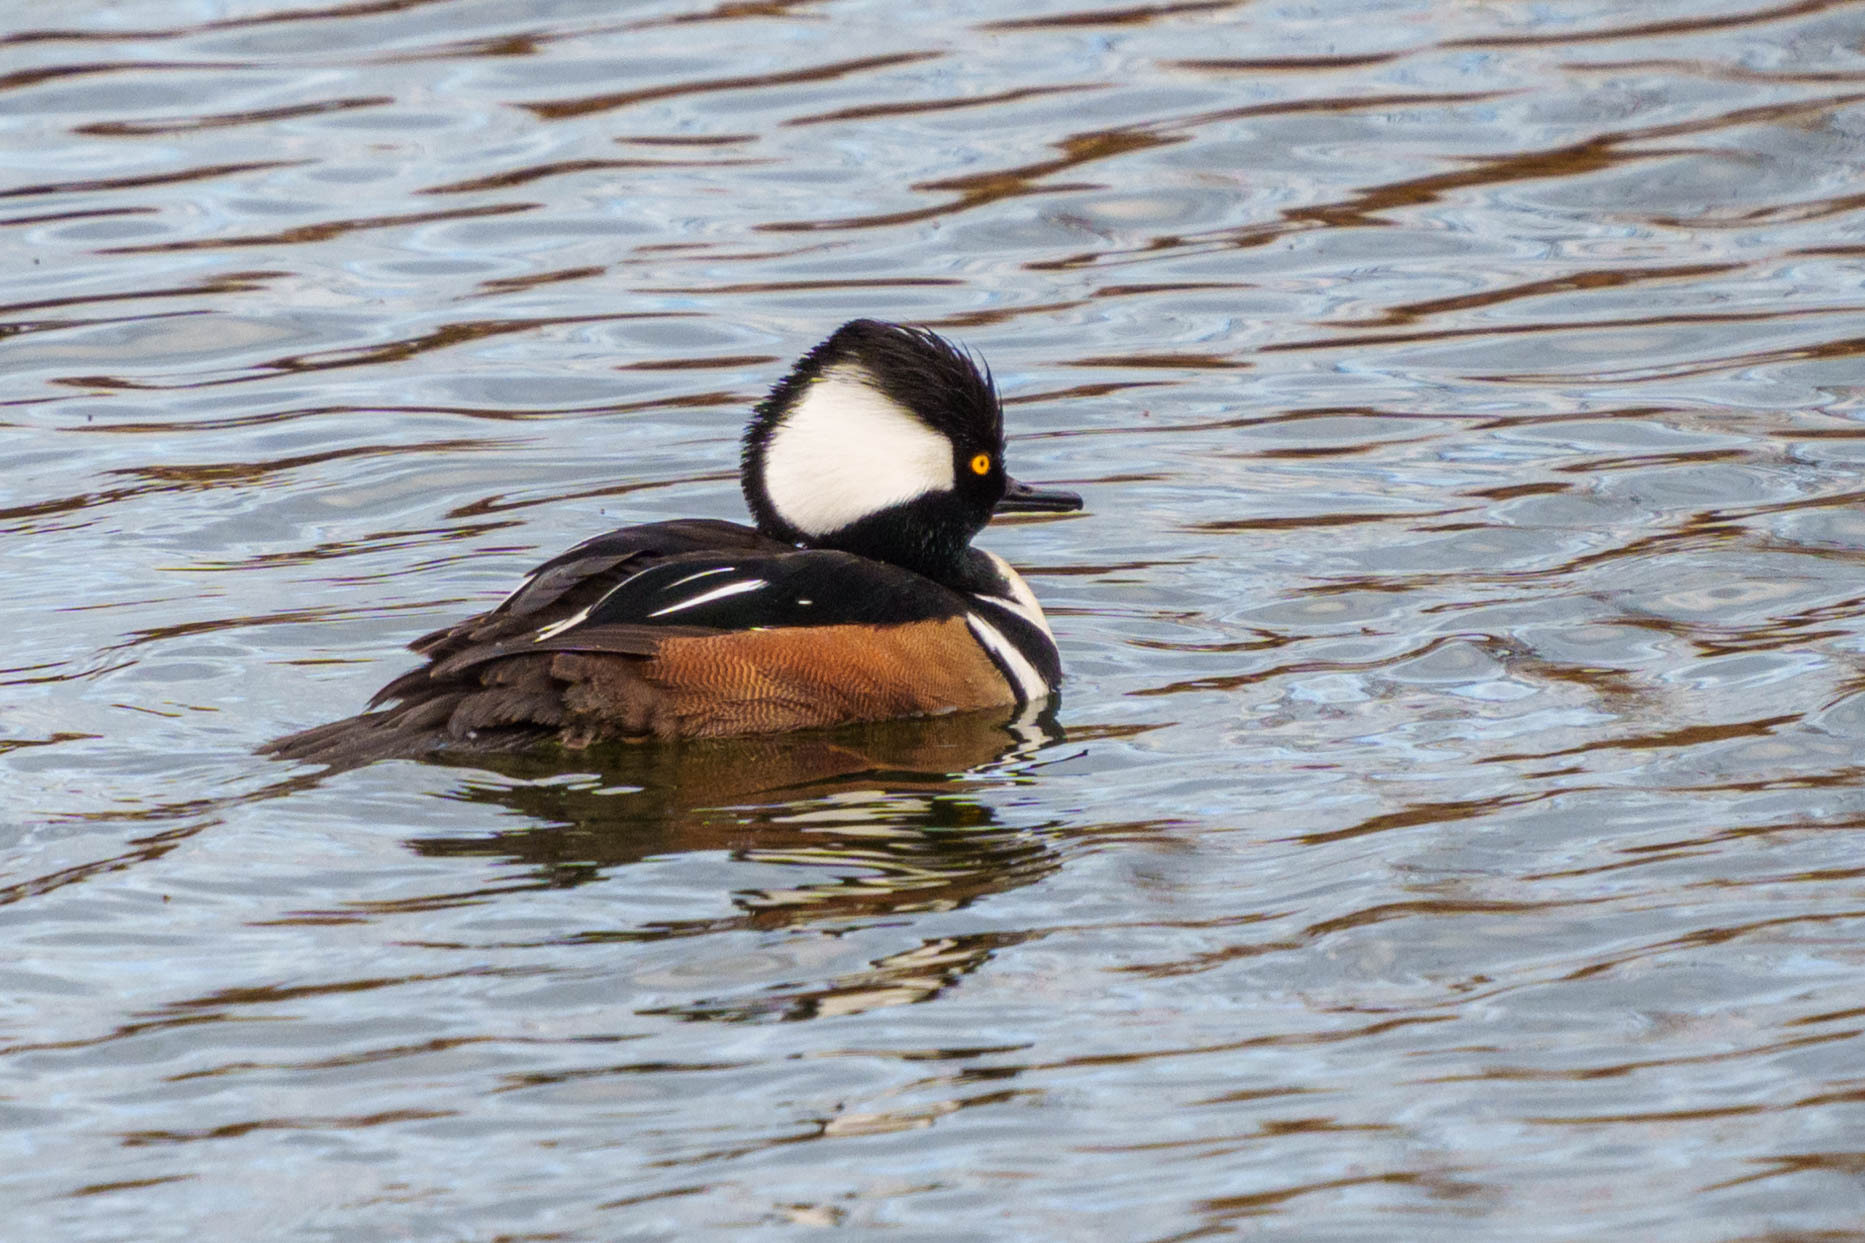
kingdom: Animalia
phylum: Chordata
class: Aves
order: Anseriformes
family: Anatidae
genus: Lophodytes
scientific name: Lophodytes cucullatus
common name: Hooded merganser
